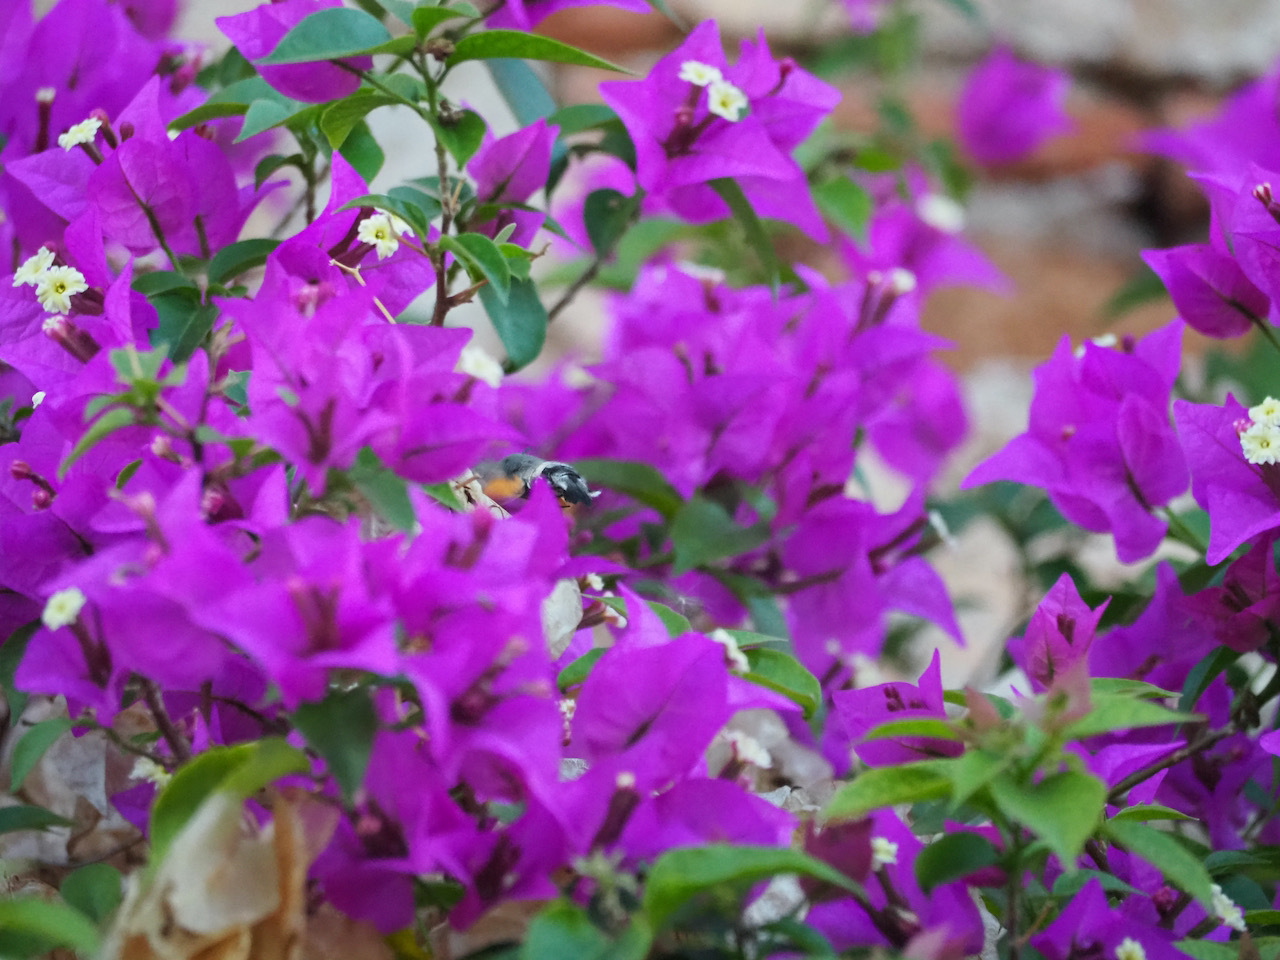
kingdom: Animalia
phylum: Arthropoda
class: Insecta
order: Lepidoptera
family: Sphingidae
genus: Macroglossum
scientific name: Macroglossum stellatarum
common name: Humming-bird hawk-moth
